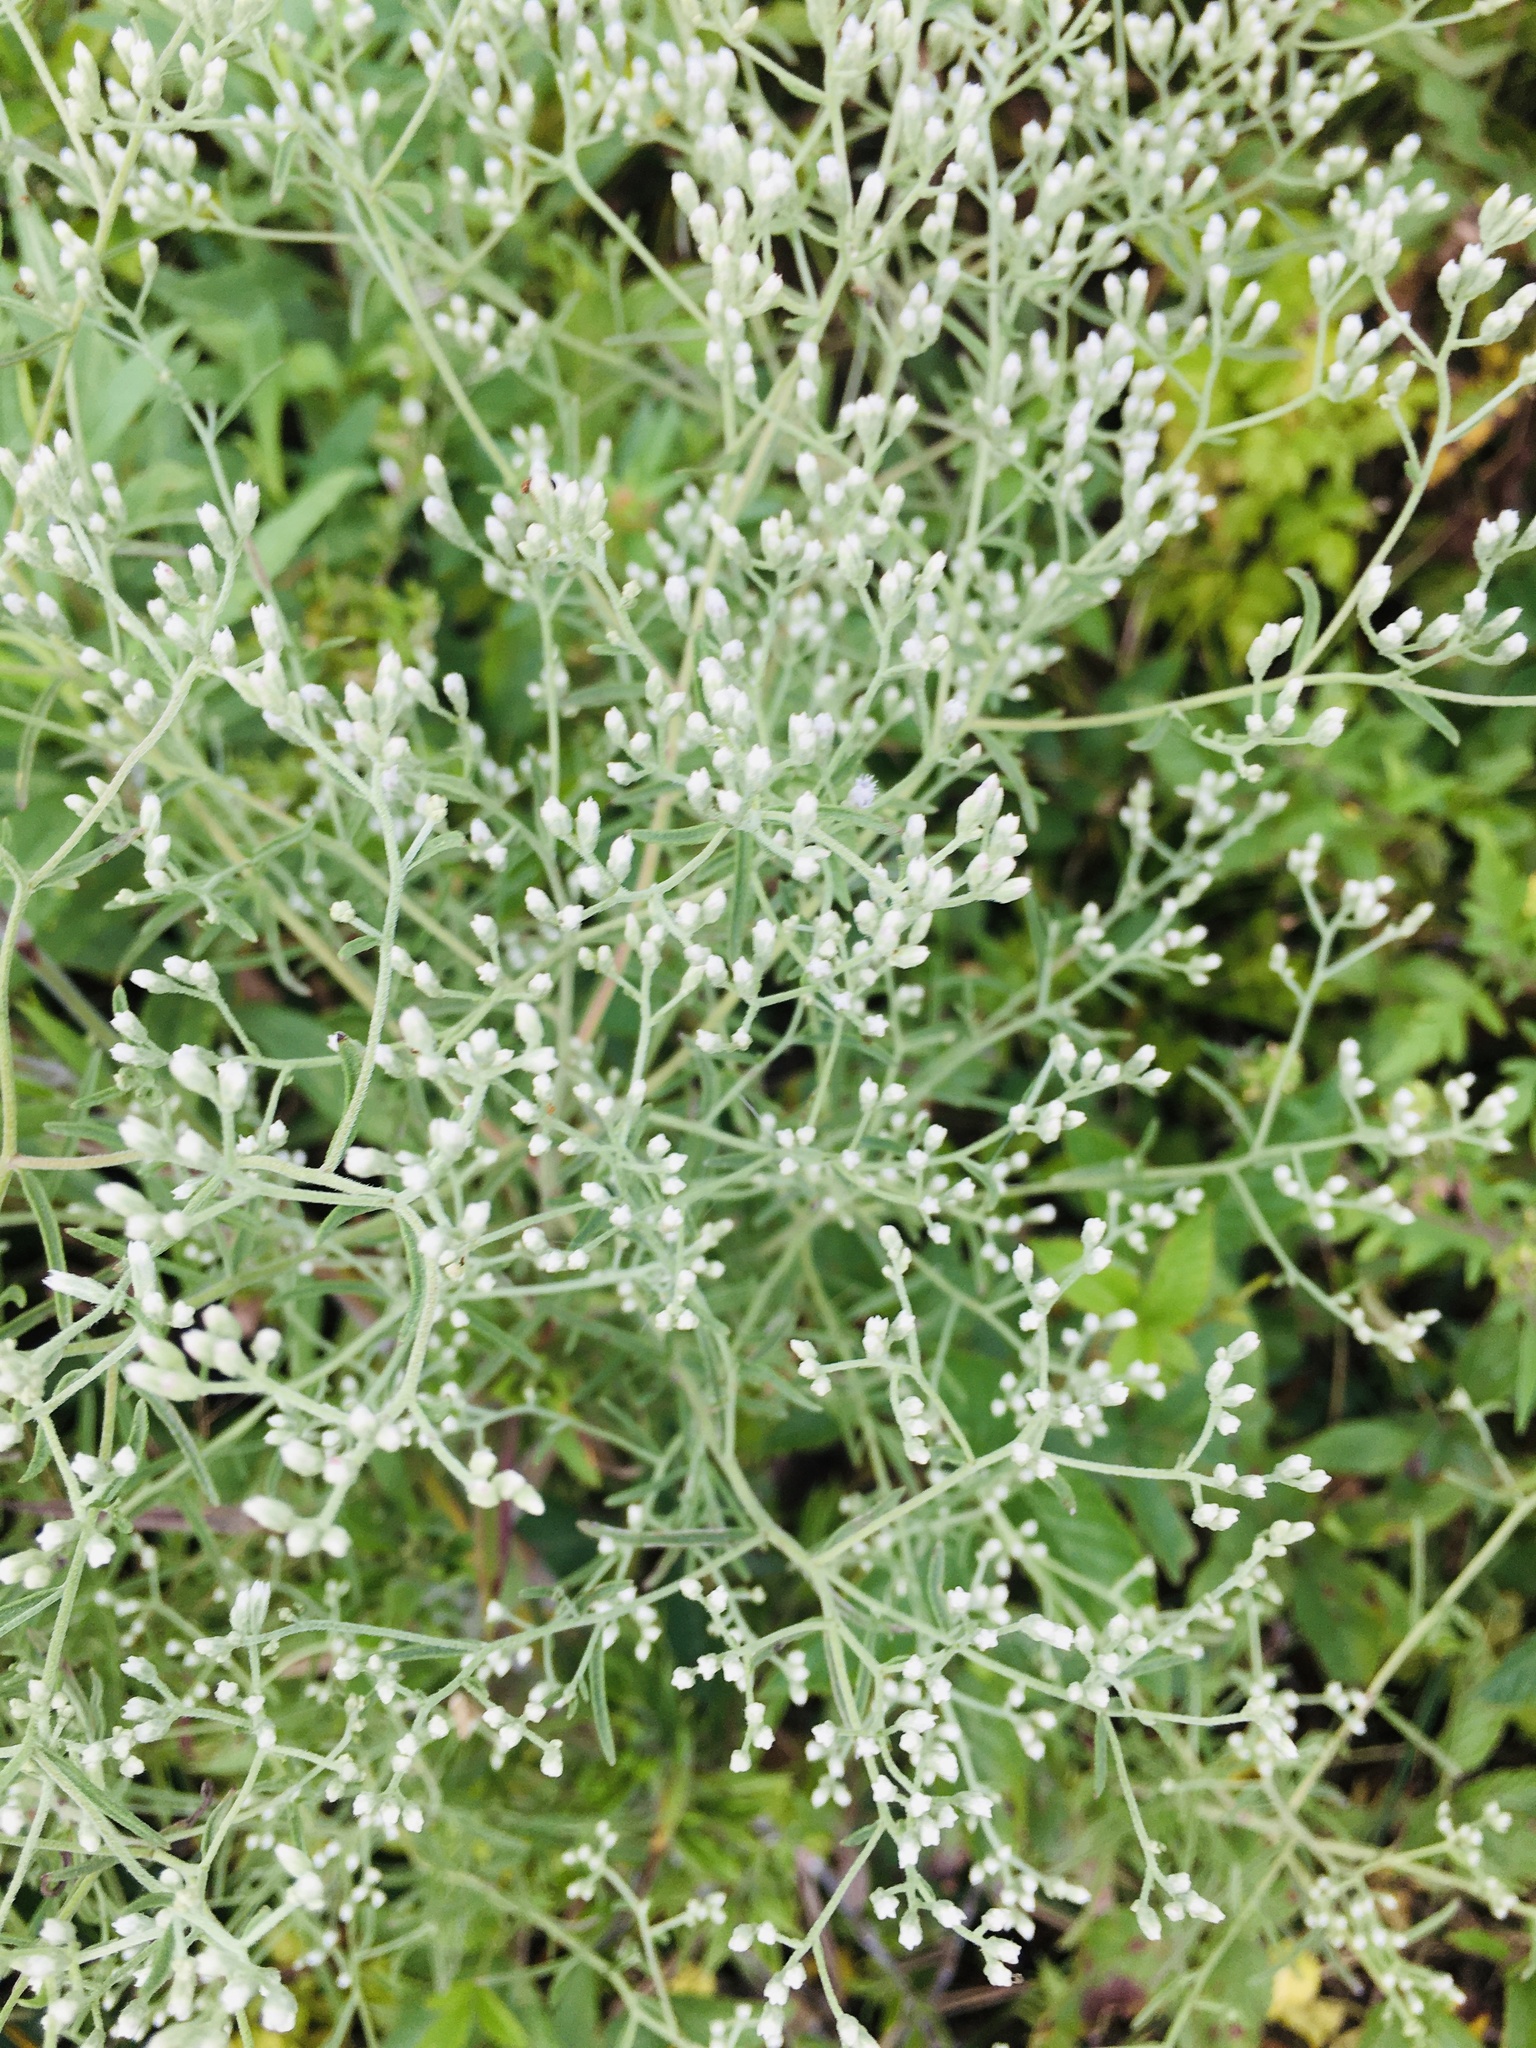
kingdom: Plantae
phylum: Tracheophyta
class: Magnoliopsida
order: Asterales
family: Asteraceae
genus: Eupatorium
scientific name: Eupatorium hyssopifolium
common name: Hyssop-leaf thoroughwort
